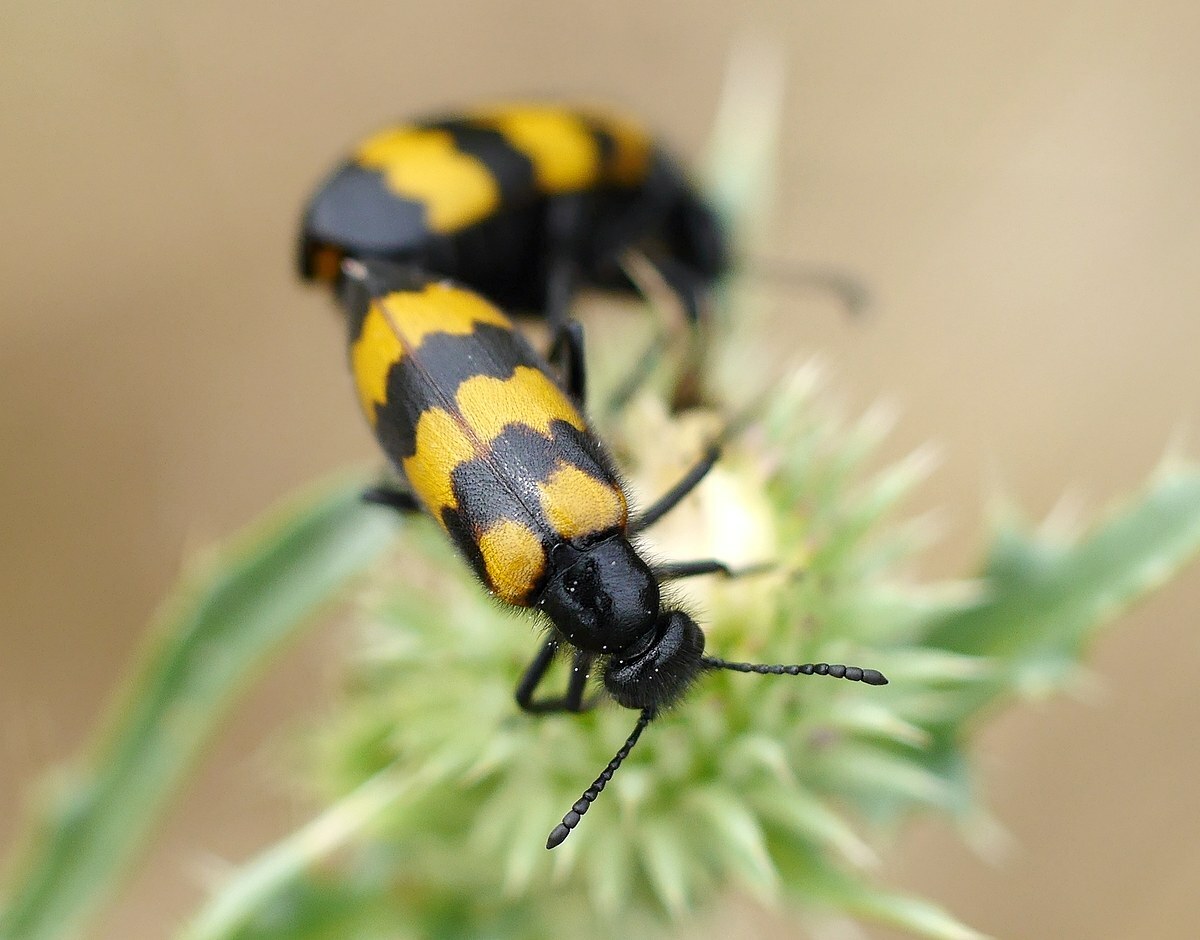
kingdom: Animalia
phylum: Arthropoda
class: Insecta
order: Coleoptera
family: Meloidae
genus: Mylabris
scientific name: Mylabris variabilis
